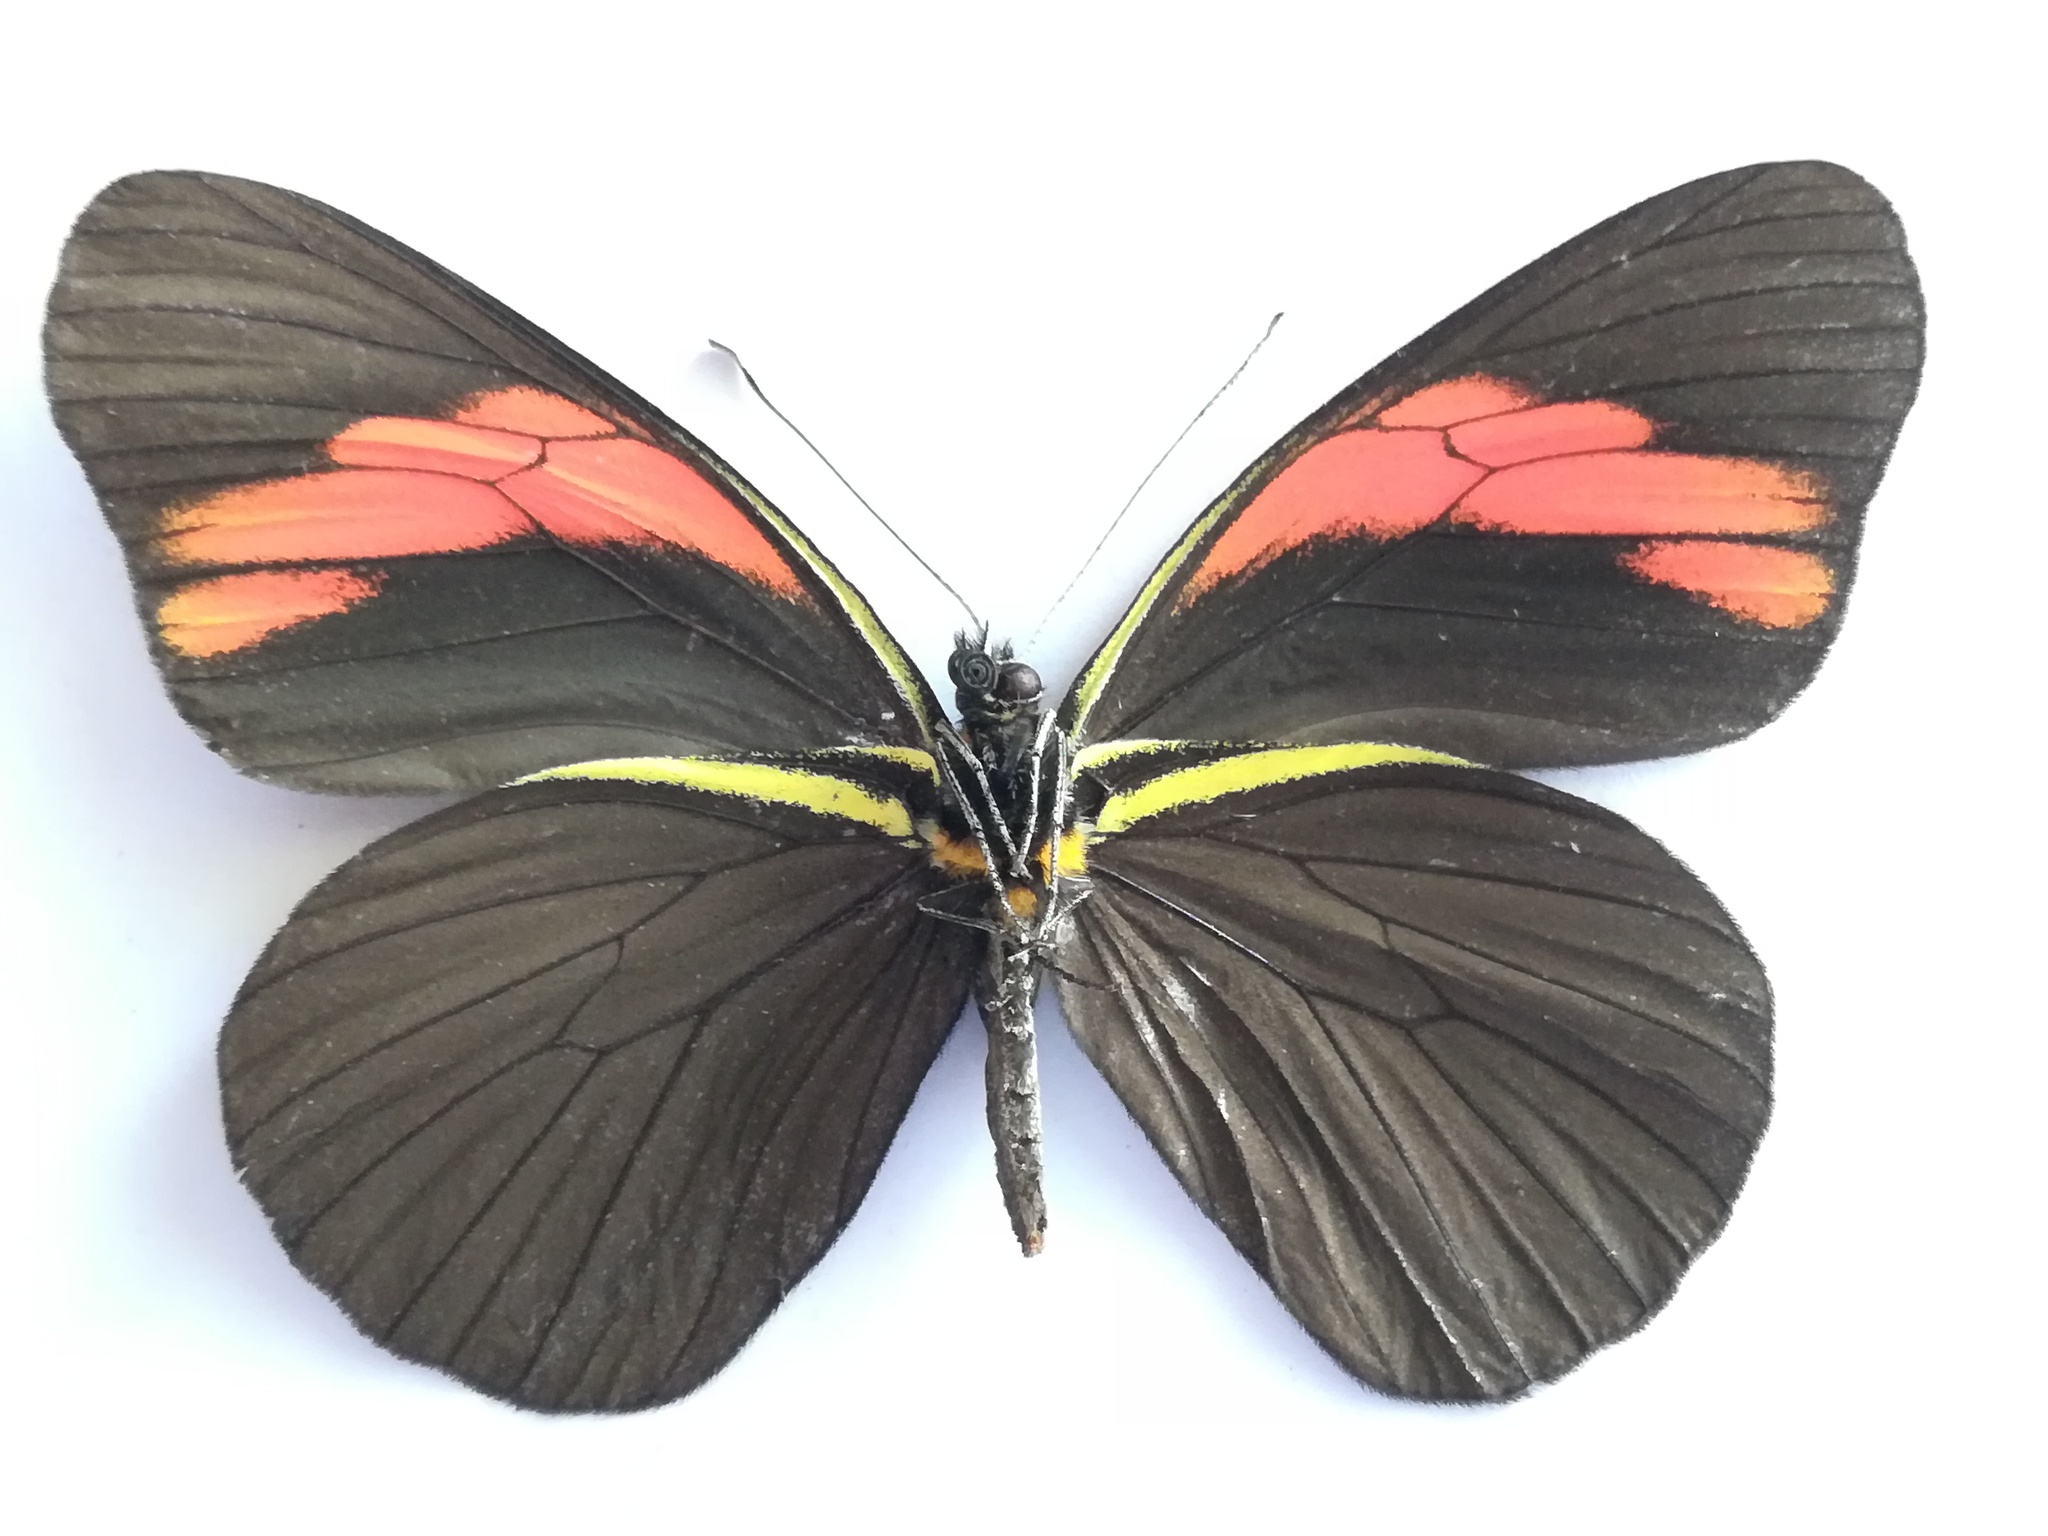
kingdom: Animalia
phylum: Arthropoda
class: Insecta
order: Lepidoptera
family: Pieridae
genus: Pereute
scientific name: Pereute charops
